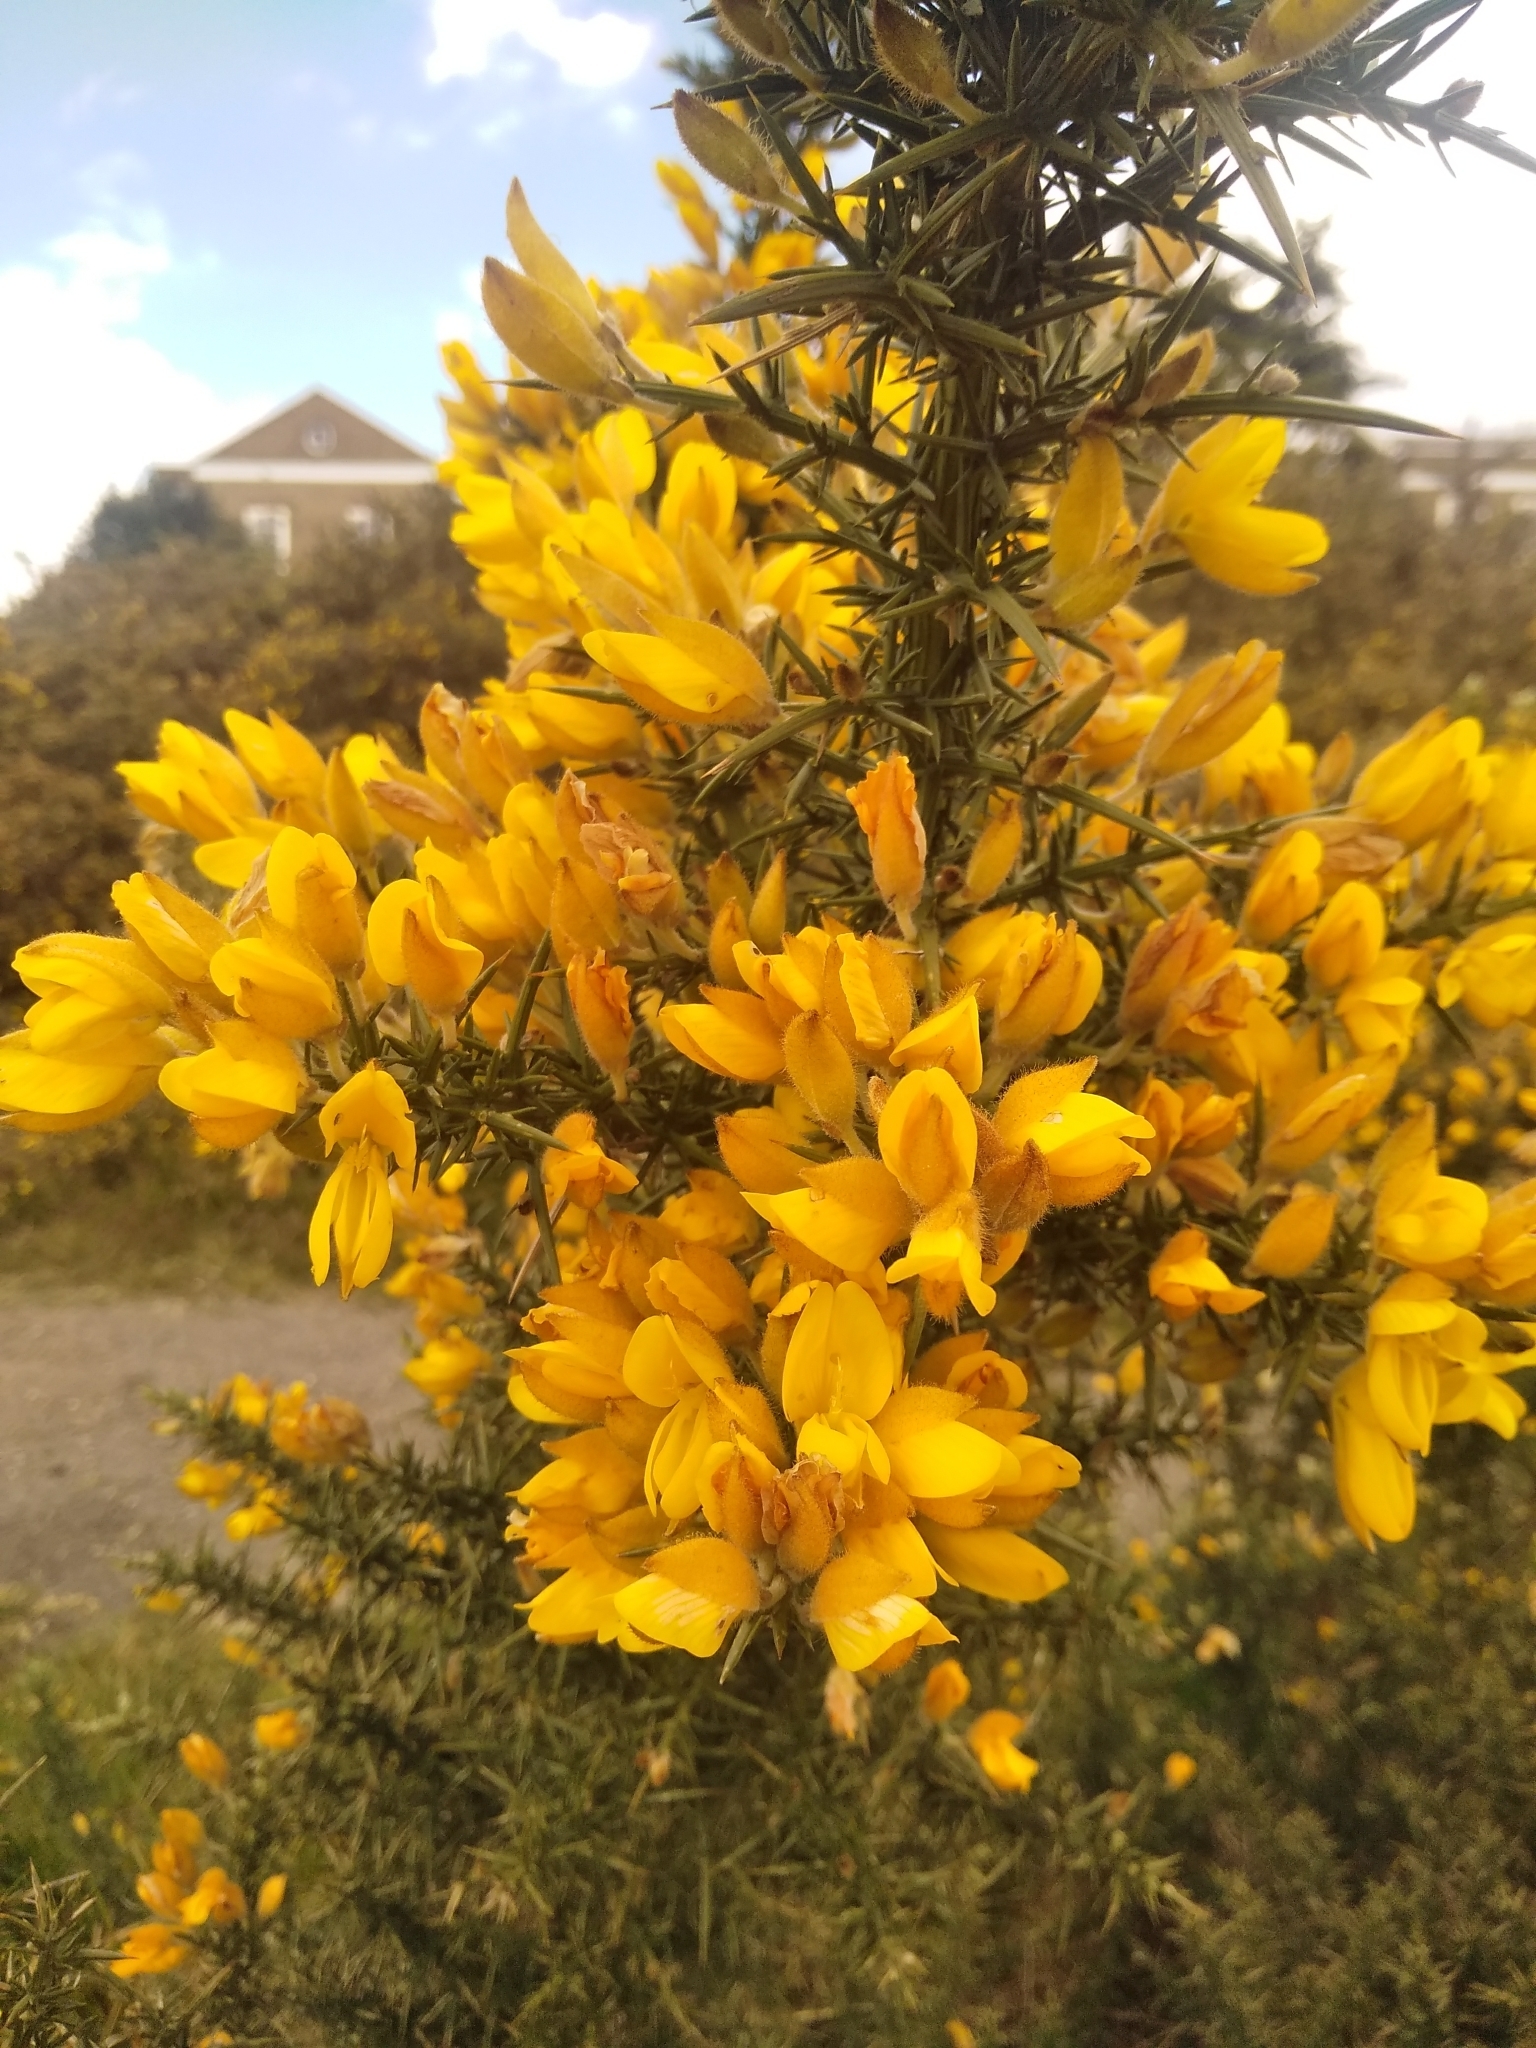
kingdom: Plantae
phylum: Tracheophyta
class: Magnoliopsida
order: Fabales
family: Fabaceae
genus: Ulex
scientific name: Ulex europaeus
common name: Common gorse
